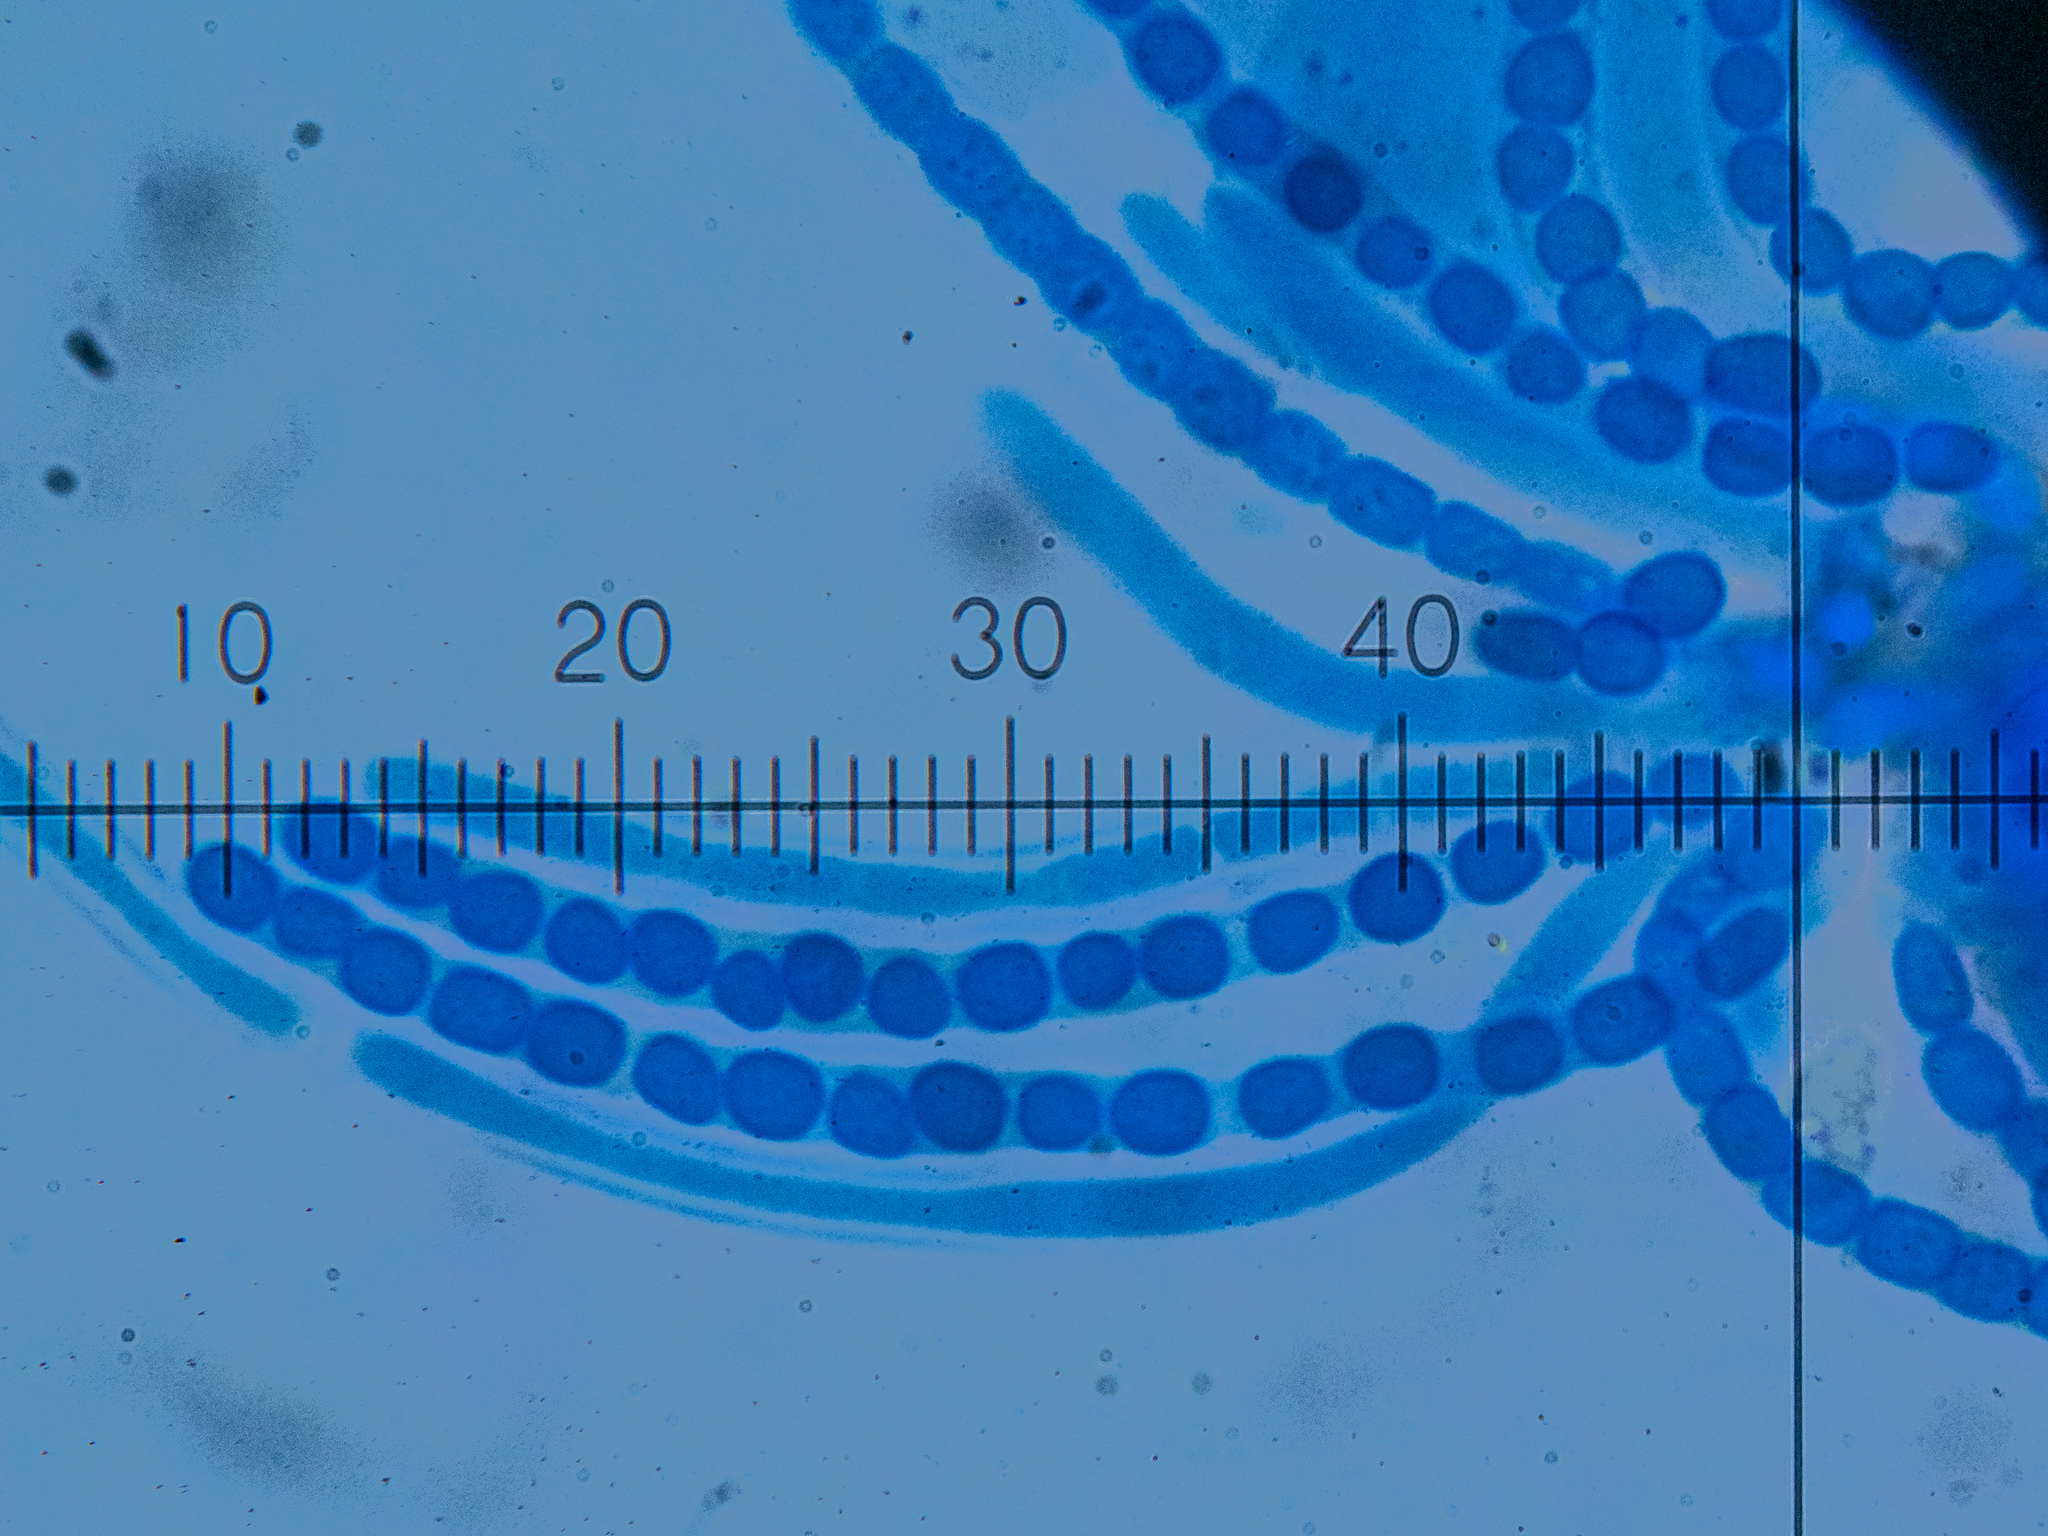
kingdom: Fungi
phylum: Ascomycota
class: Sordariomycetes
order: Hypocreales
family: Hypocreaceae
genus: Trichoderma
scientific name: Trichoderma sulphureum
